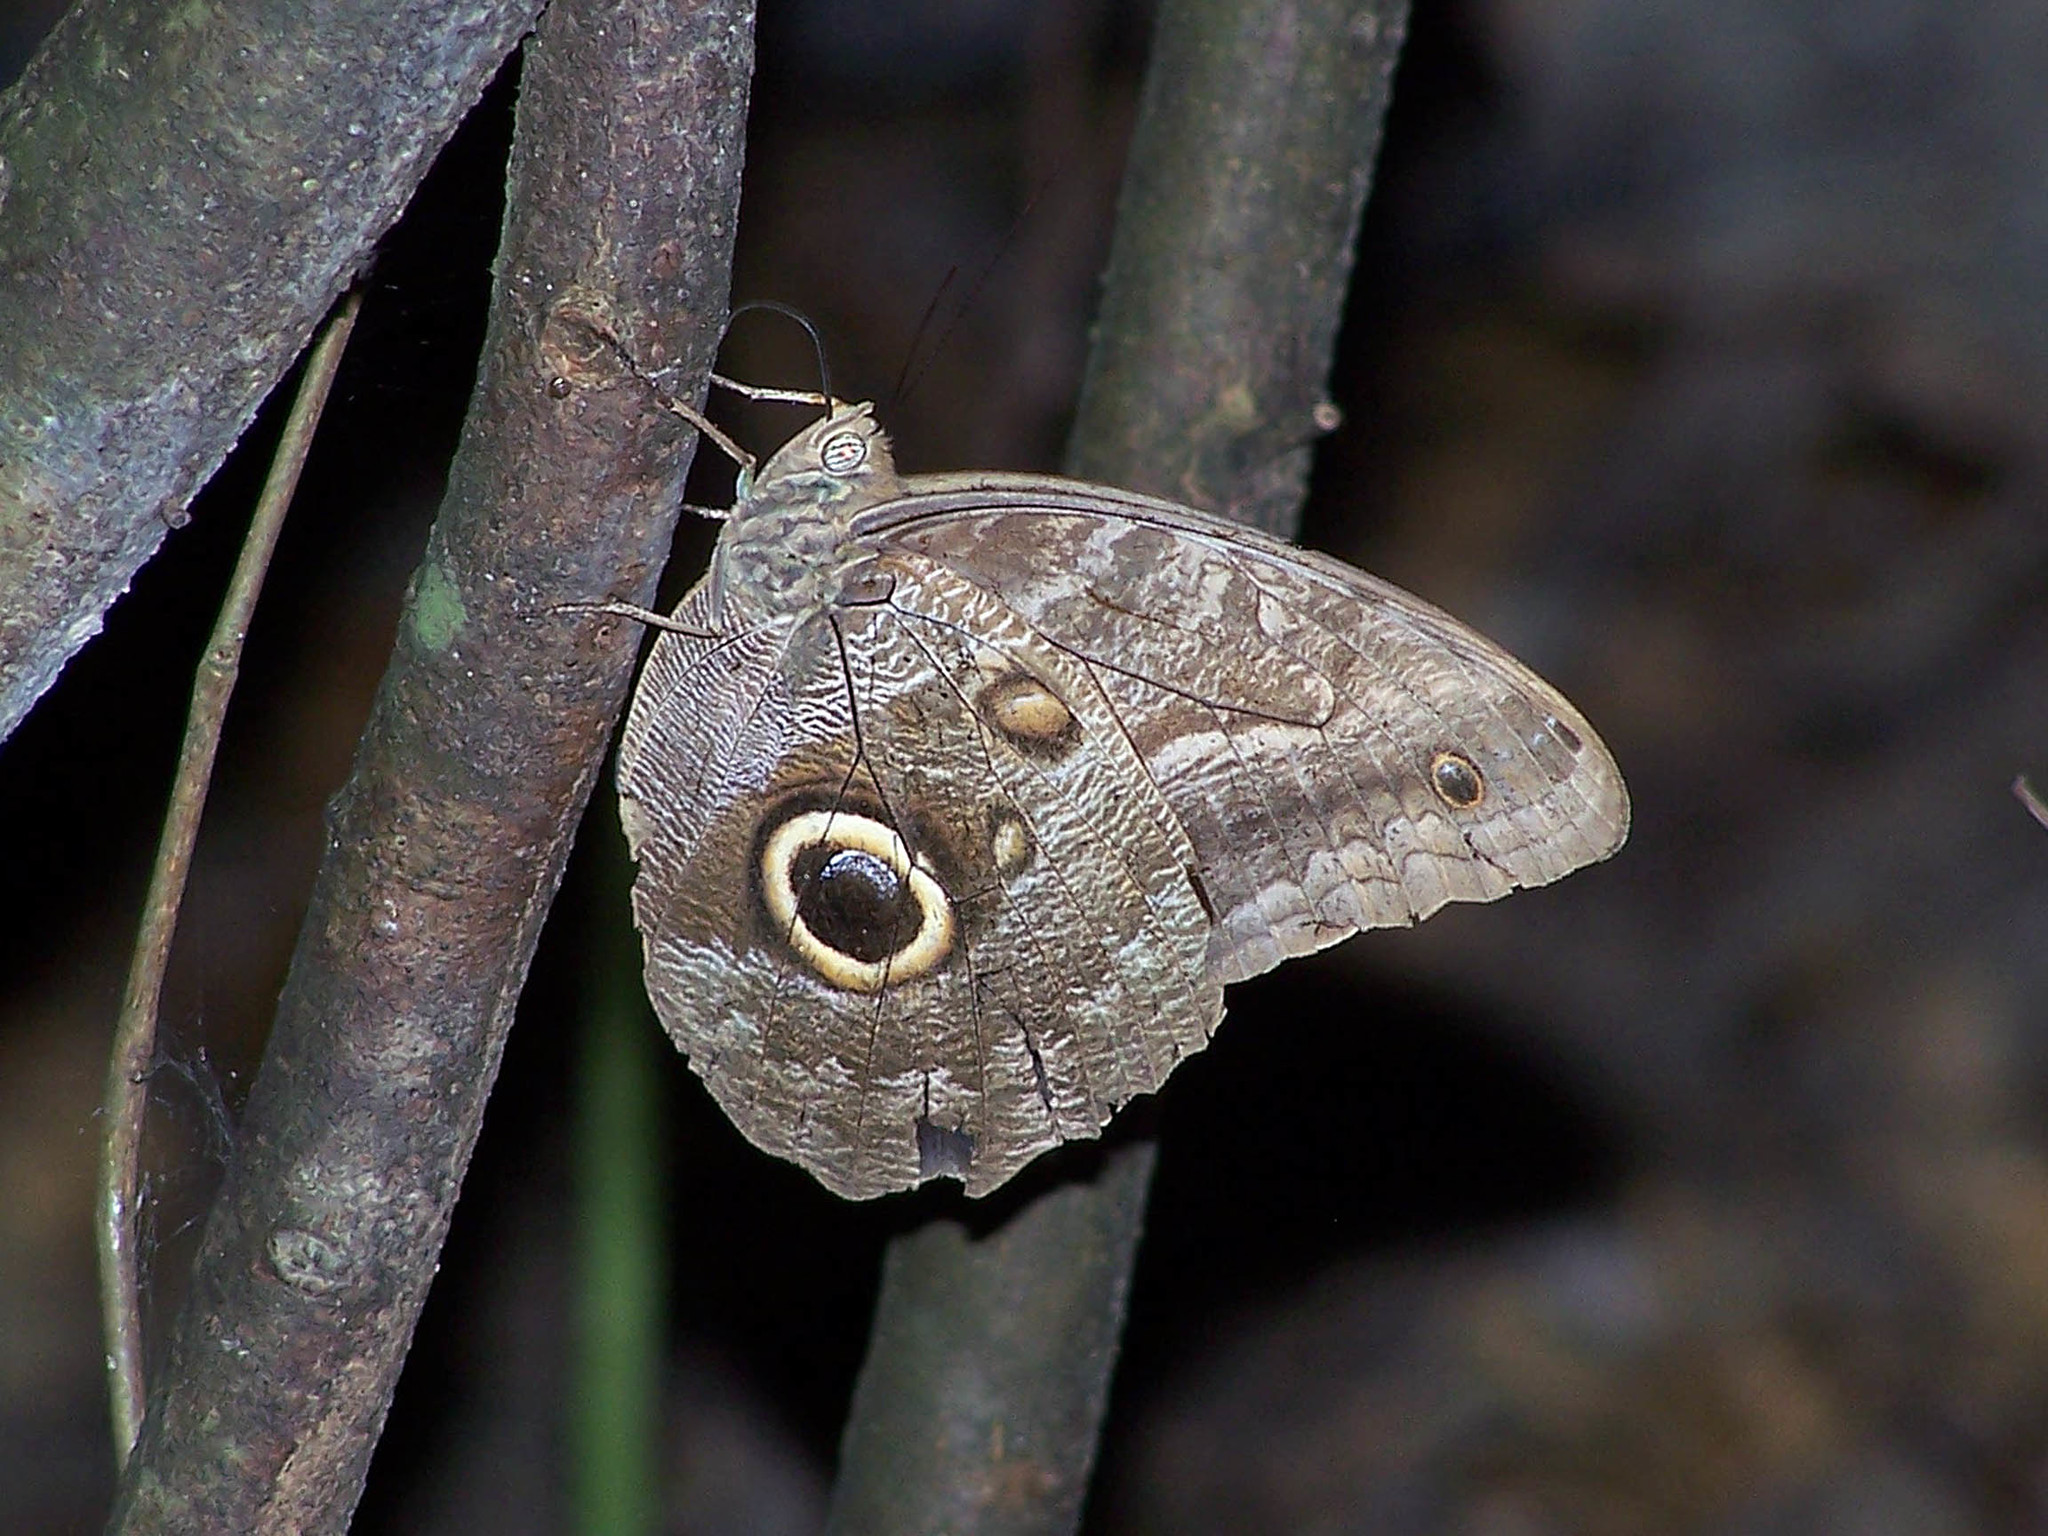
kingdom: Animalia
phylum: Arthropoda
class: Insecta
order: Lepidoptera
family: Nymphalidae
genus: Caligo
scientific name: Caligo illioneus
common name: Dusky owl-butterfly
